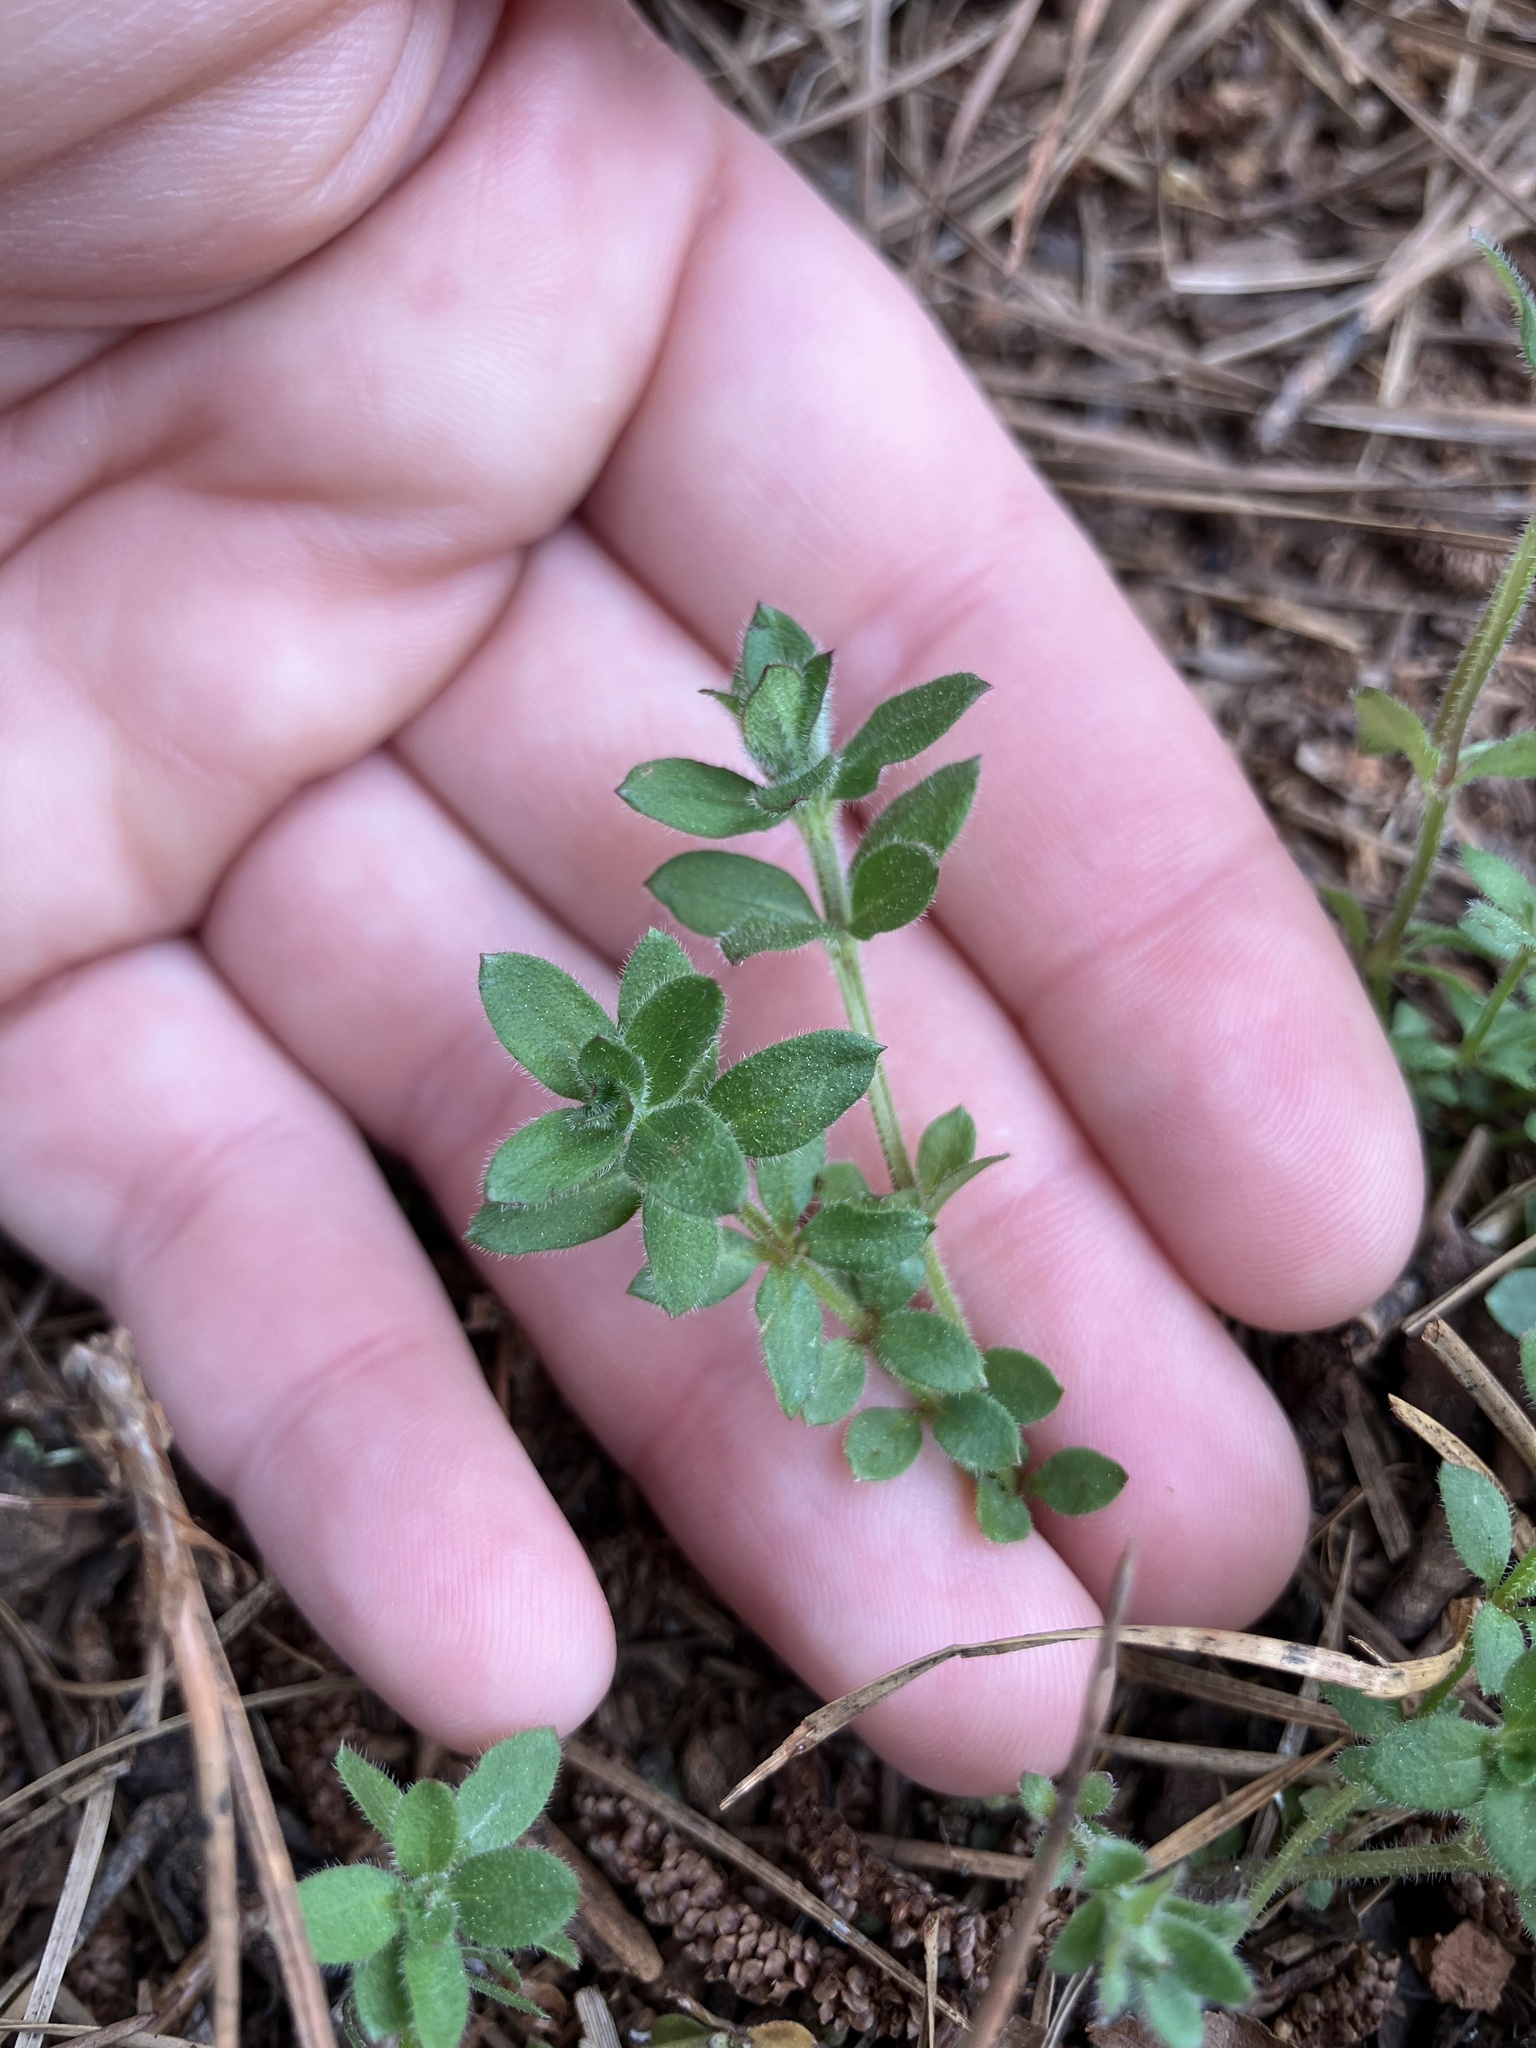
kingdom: Plantae
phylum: Tracheophyta
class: Magnoliopsida
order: Gentianales
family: Rubiaceae
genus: Galium
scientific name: Galium pilosum
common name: Hairy bedstraw
